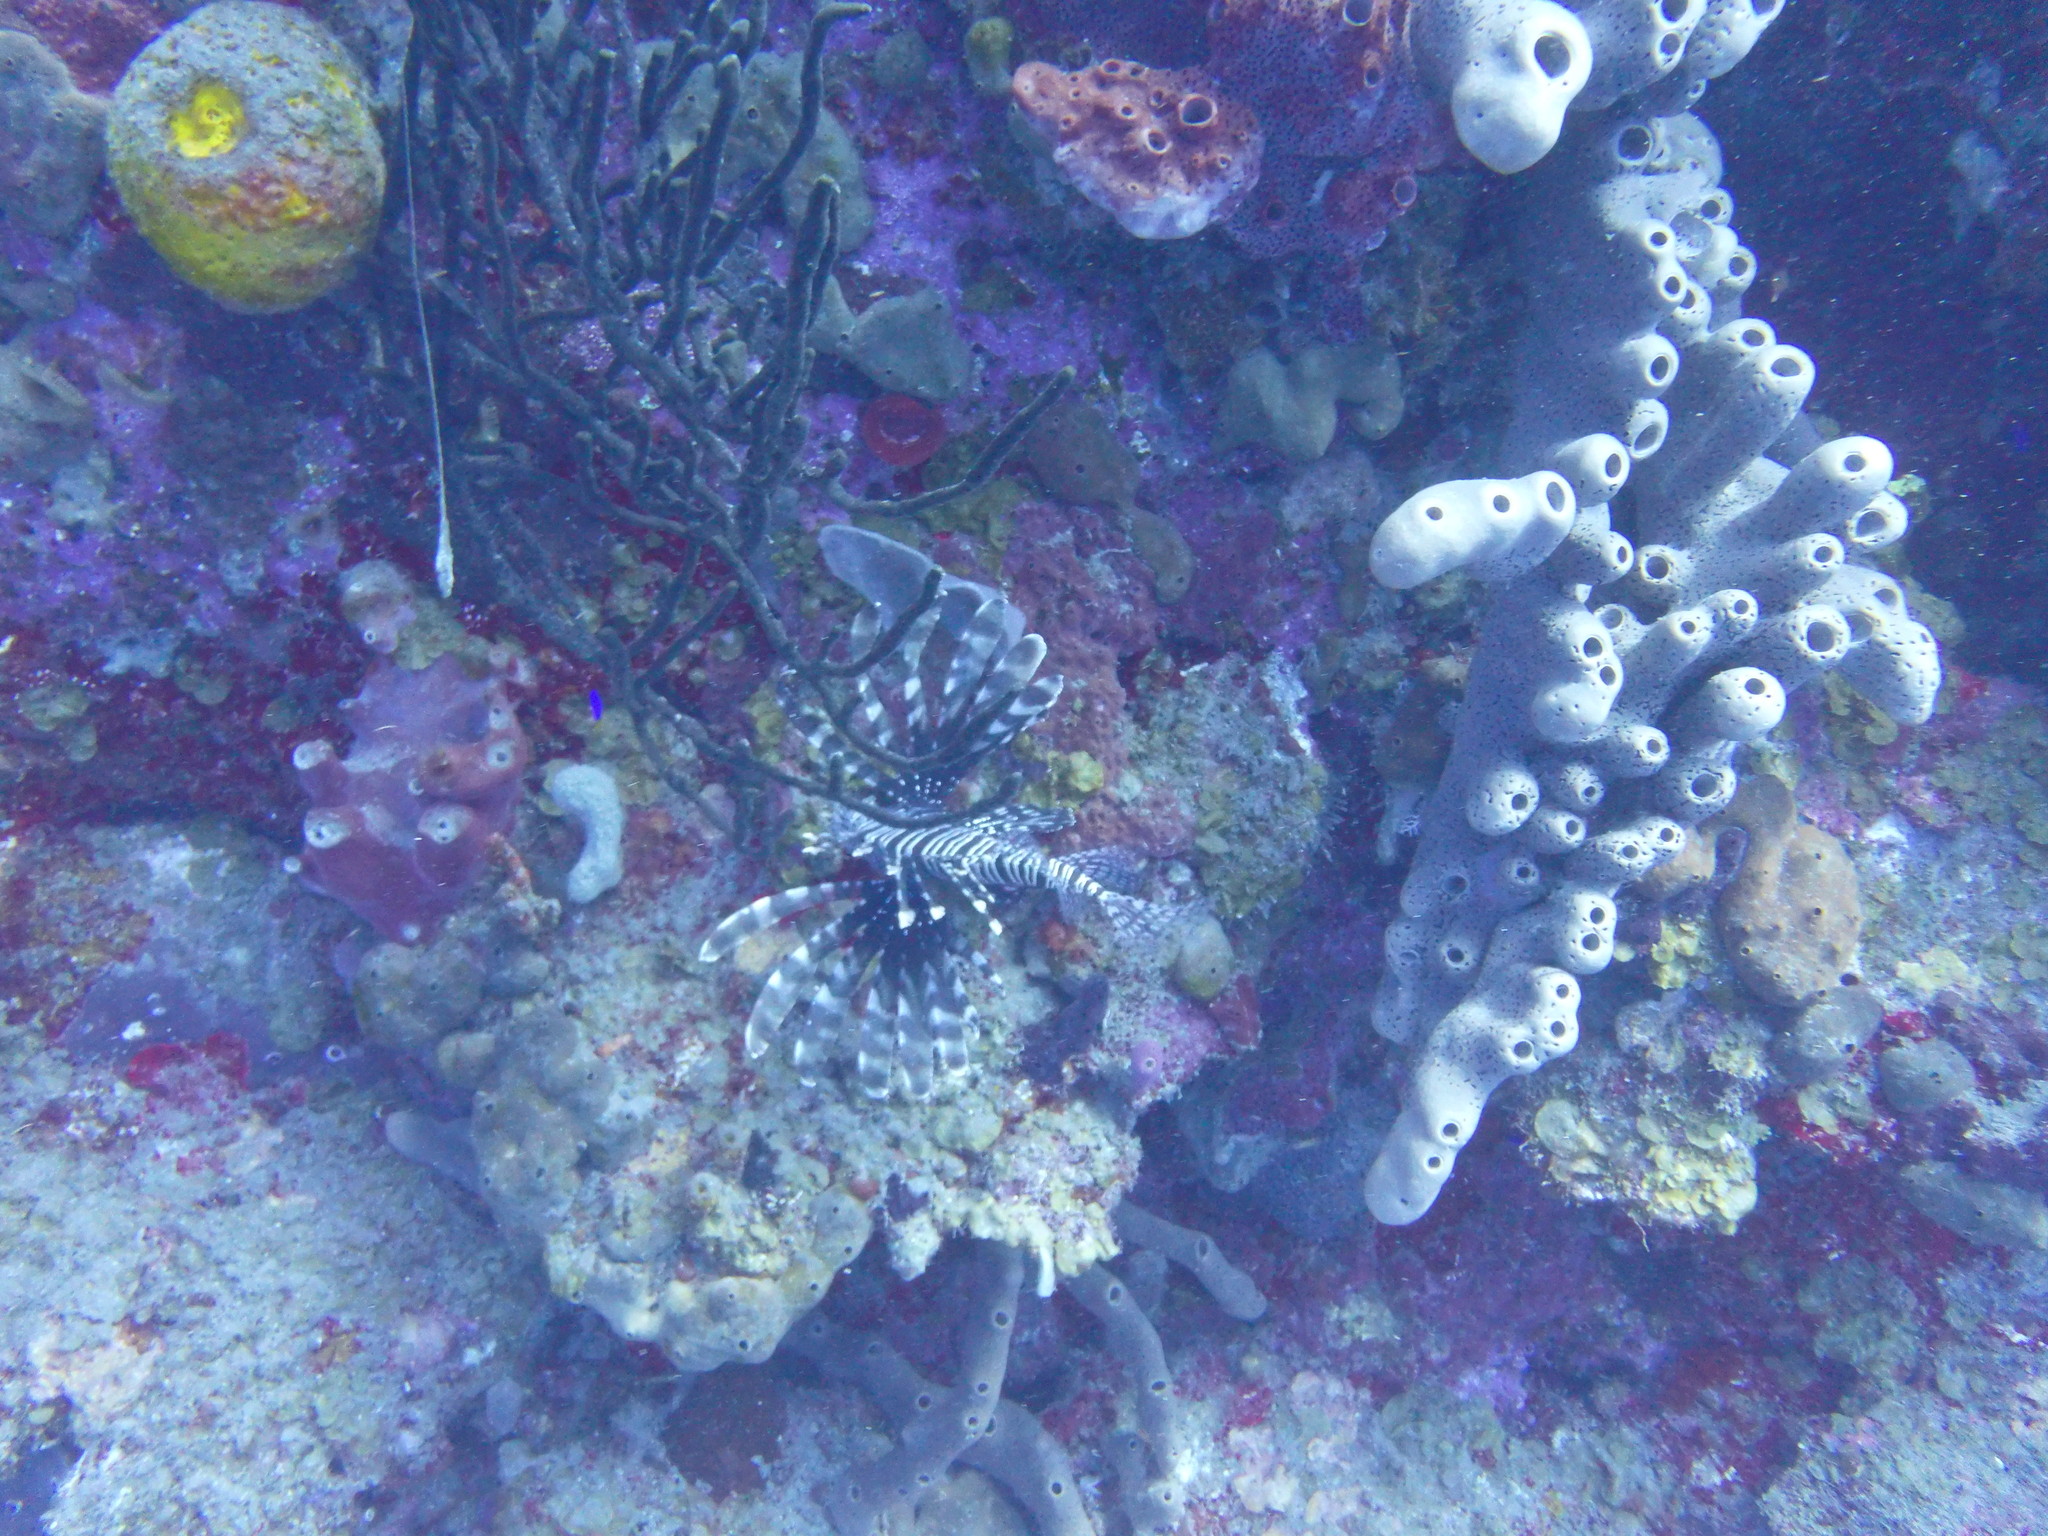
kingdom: Animalia
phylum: Chordata
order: Scorpaeniformes
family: Scorpaenidae
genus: Pterois
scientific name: Pterois volitans
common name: Lionfish
